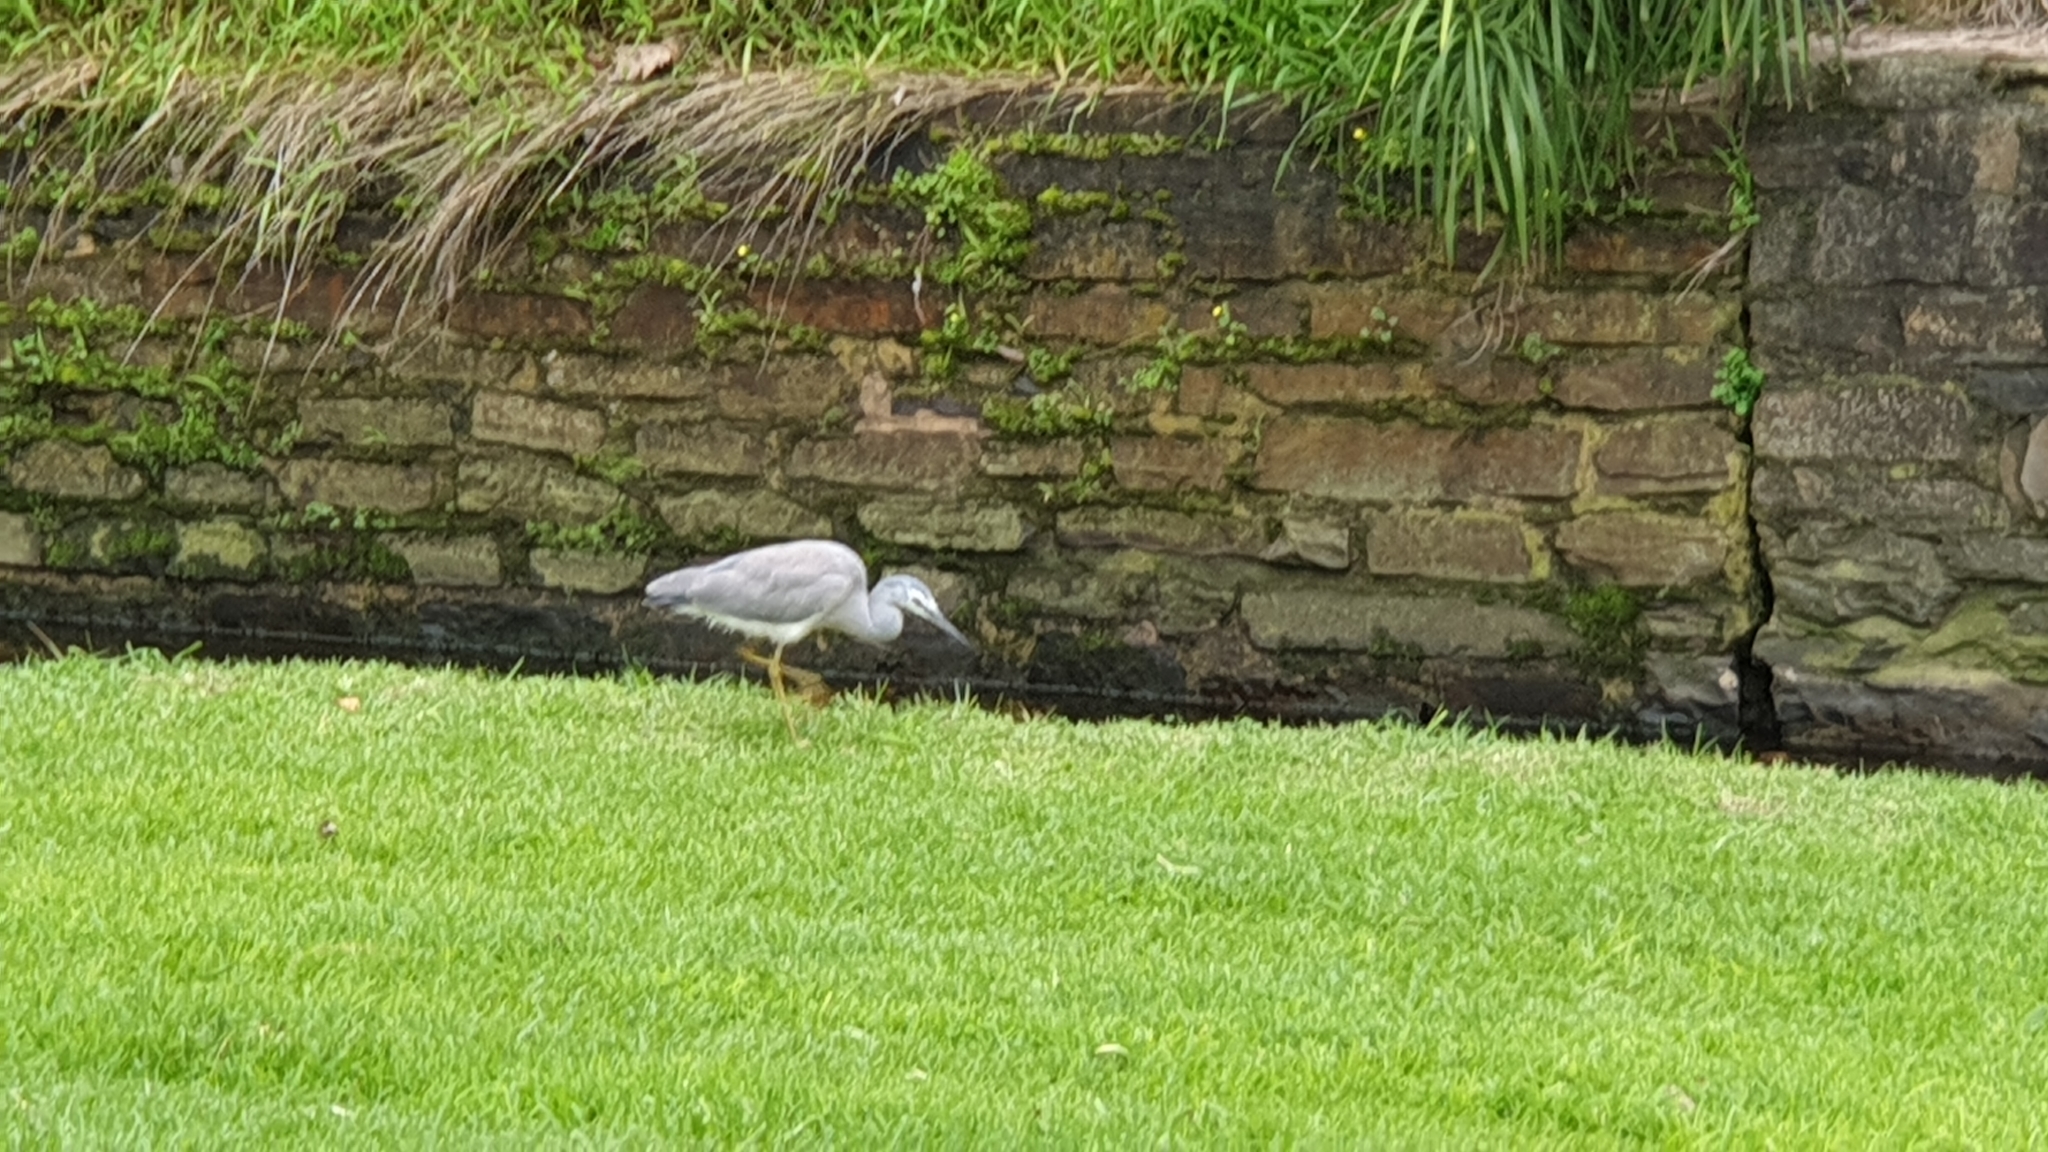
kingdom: Animalia
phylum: Chordata
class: Aves
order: Pelecaniformes
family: Ardeidae
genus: Egretta
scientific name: Egretta novaehollandiae
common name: White-faced heron
